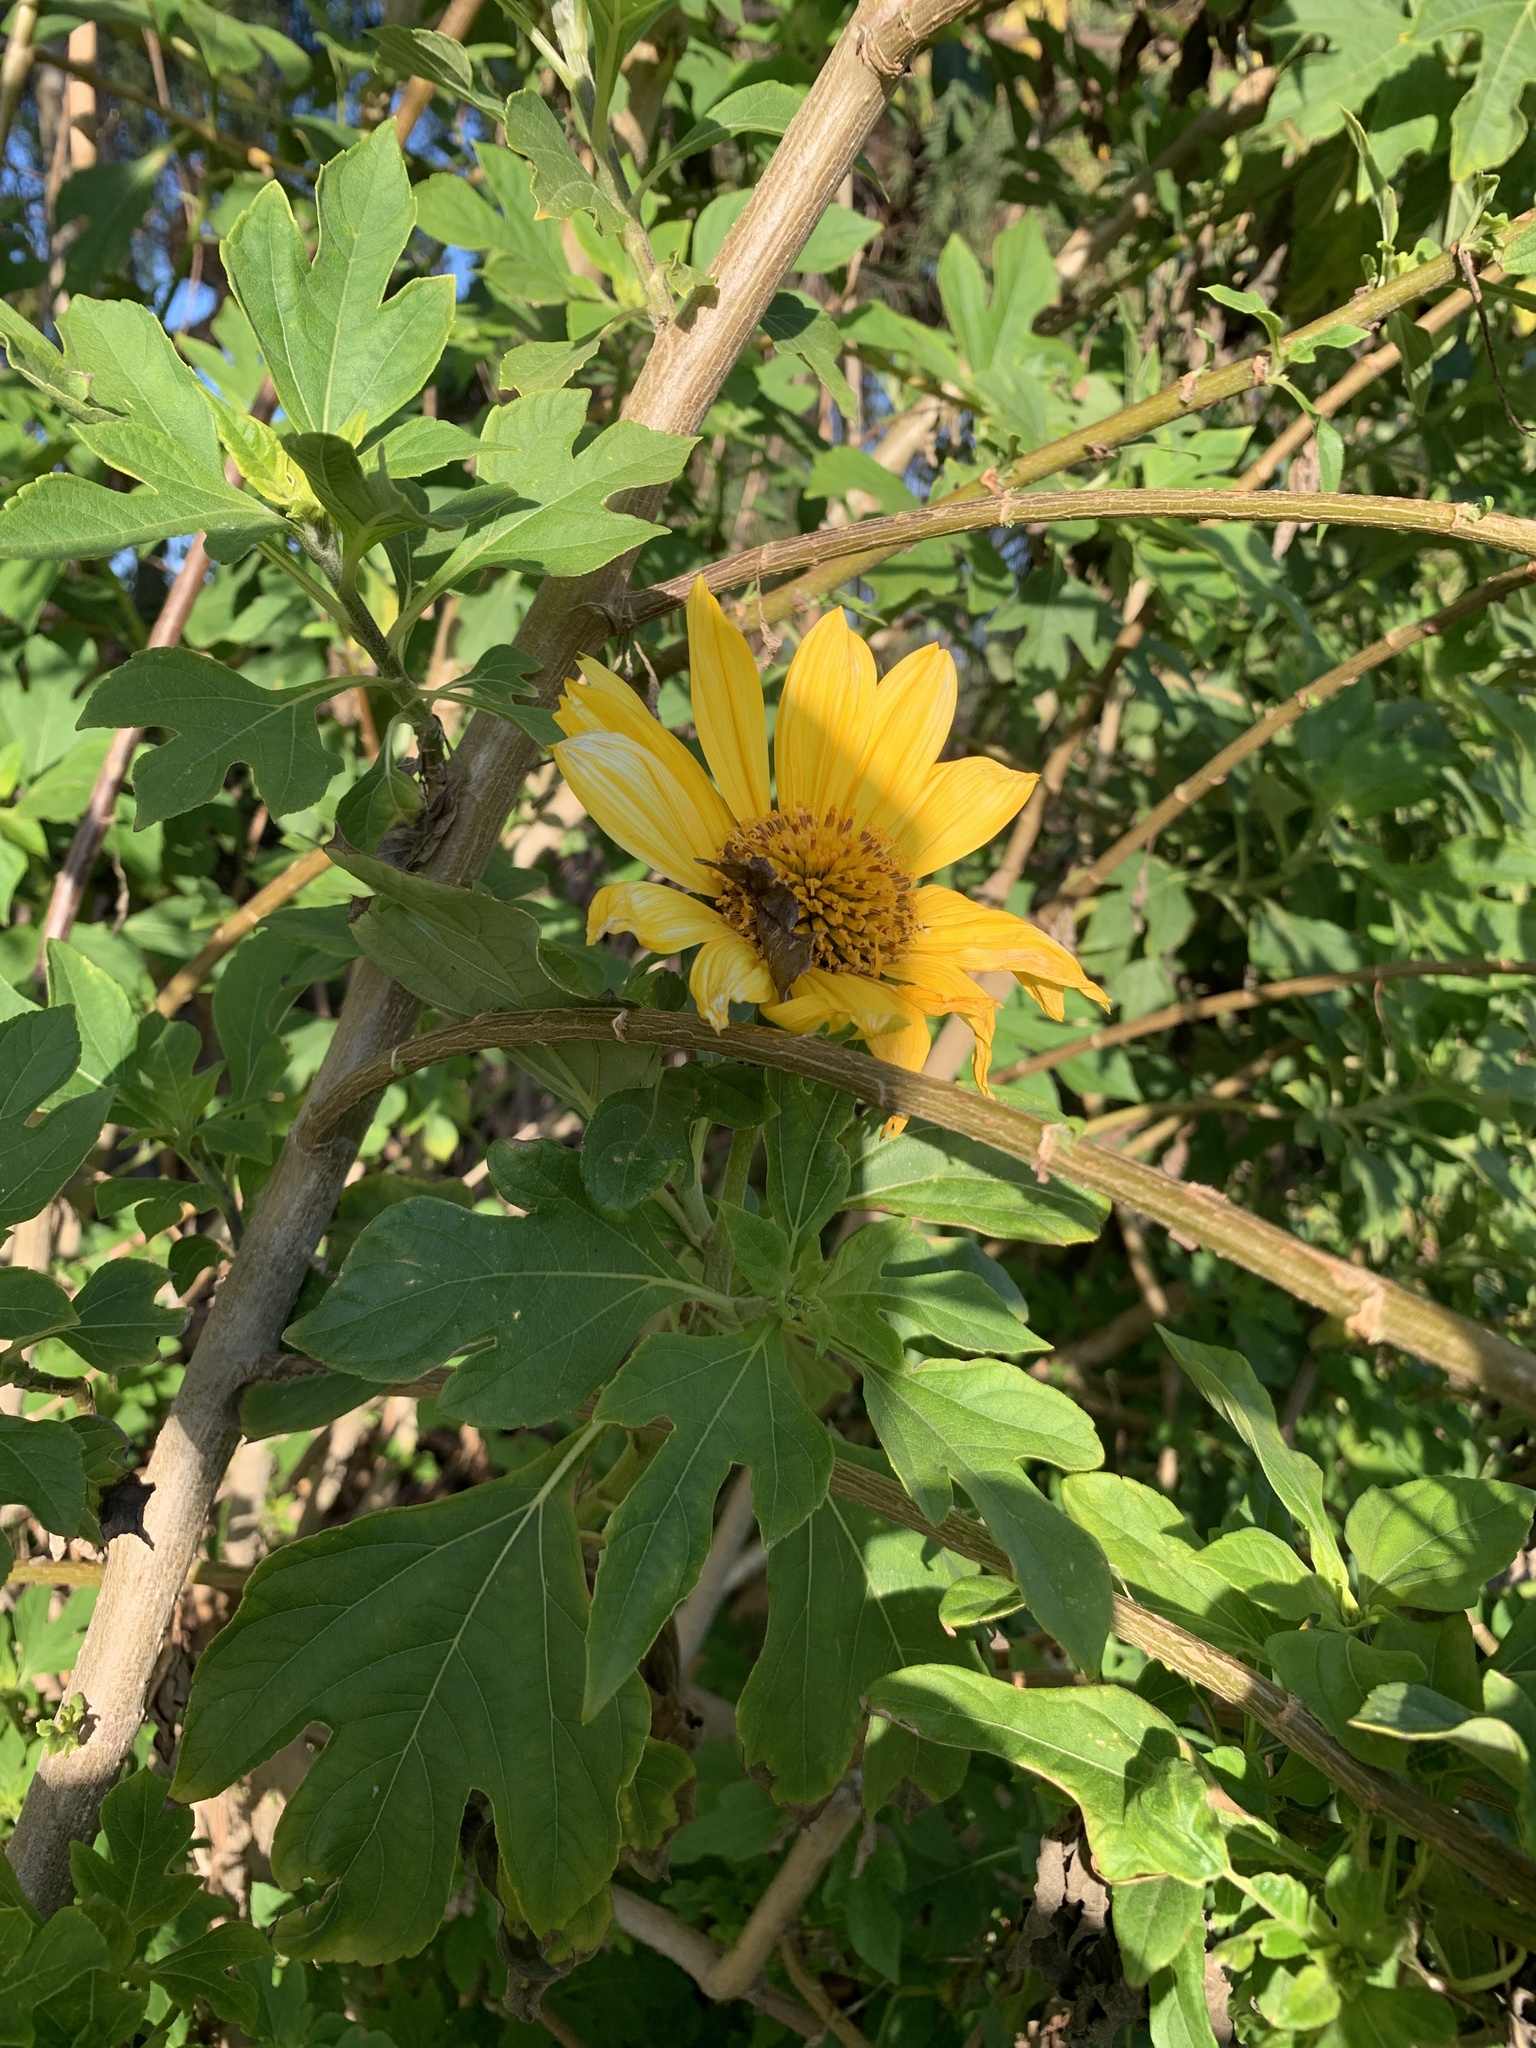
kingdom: Plantae
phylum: Tracheophyta
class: Magnoliopsida
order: Asterales
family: Asteraceae
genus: Tithonia
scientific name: Tithonia diversifolia
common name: Tree marigold
